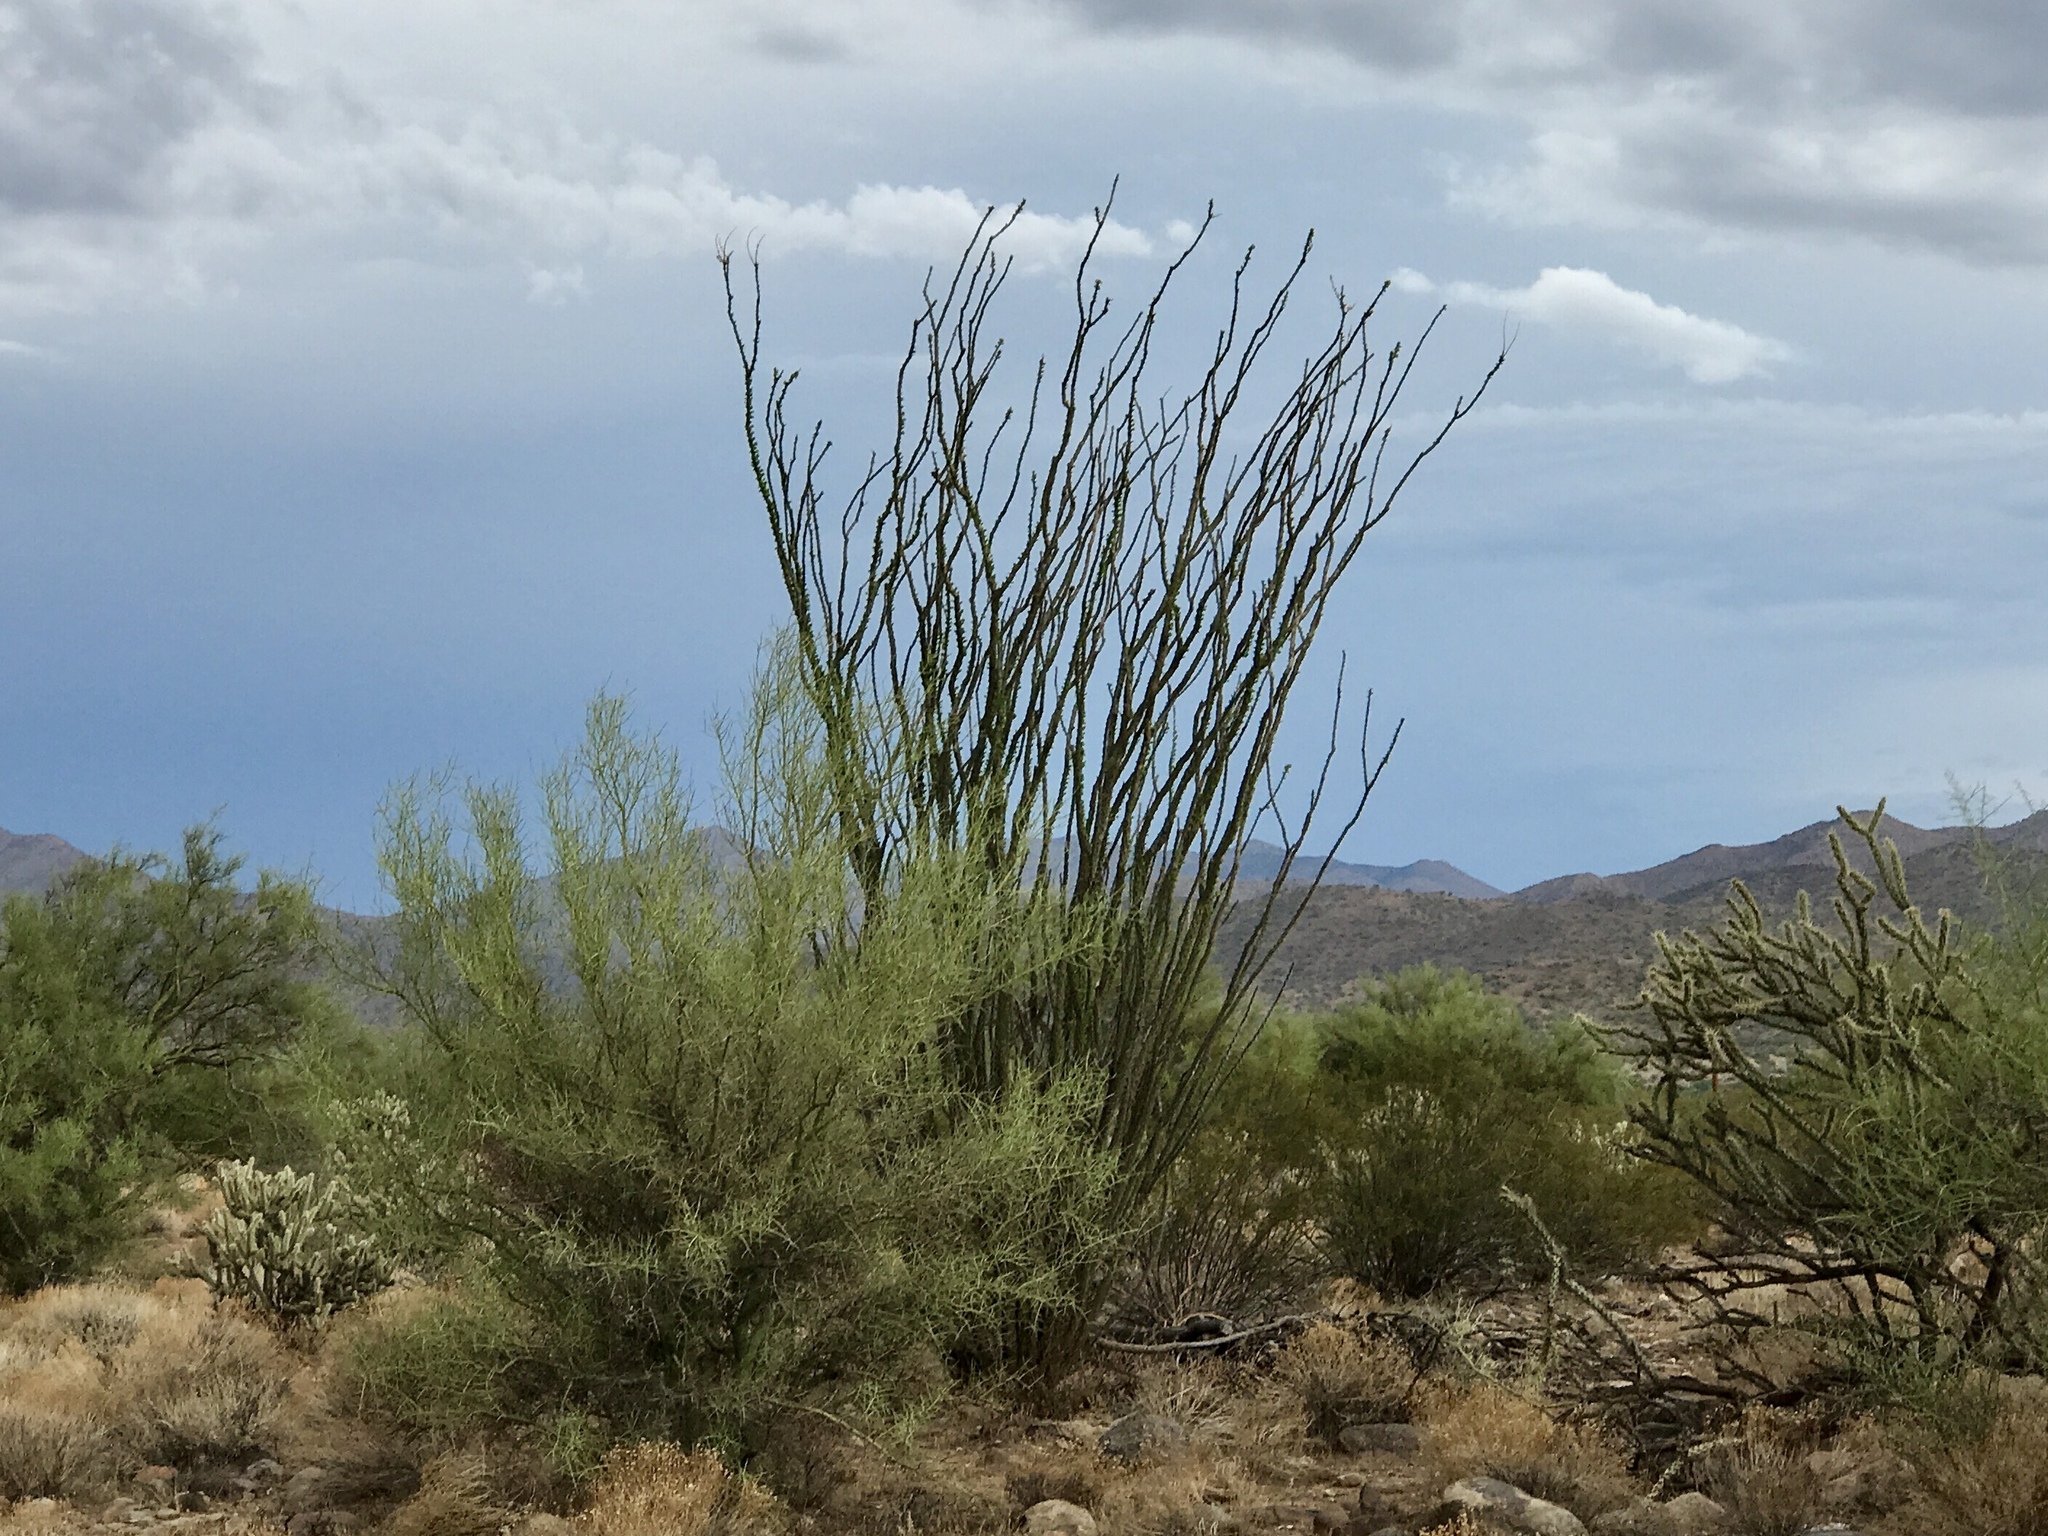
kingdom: Plantae
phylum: Tracheophyta
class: Magnoliopsida
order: Ericales
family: Fouquieriaceae
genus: Fouquieria
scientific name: Fouquieria splendens
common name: Vine-cactus
